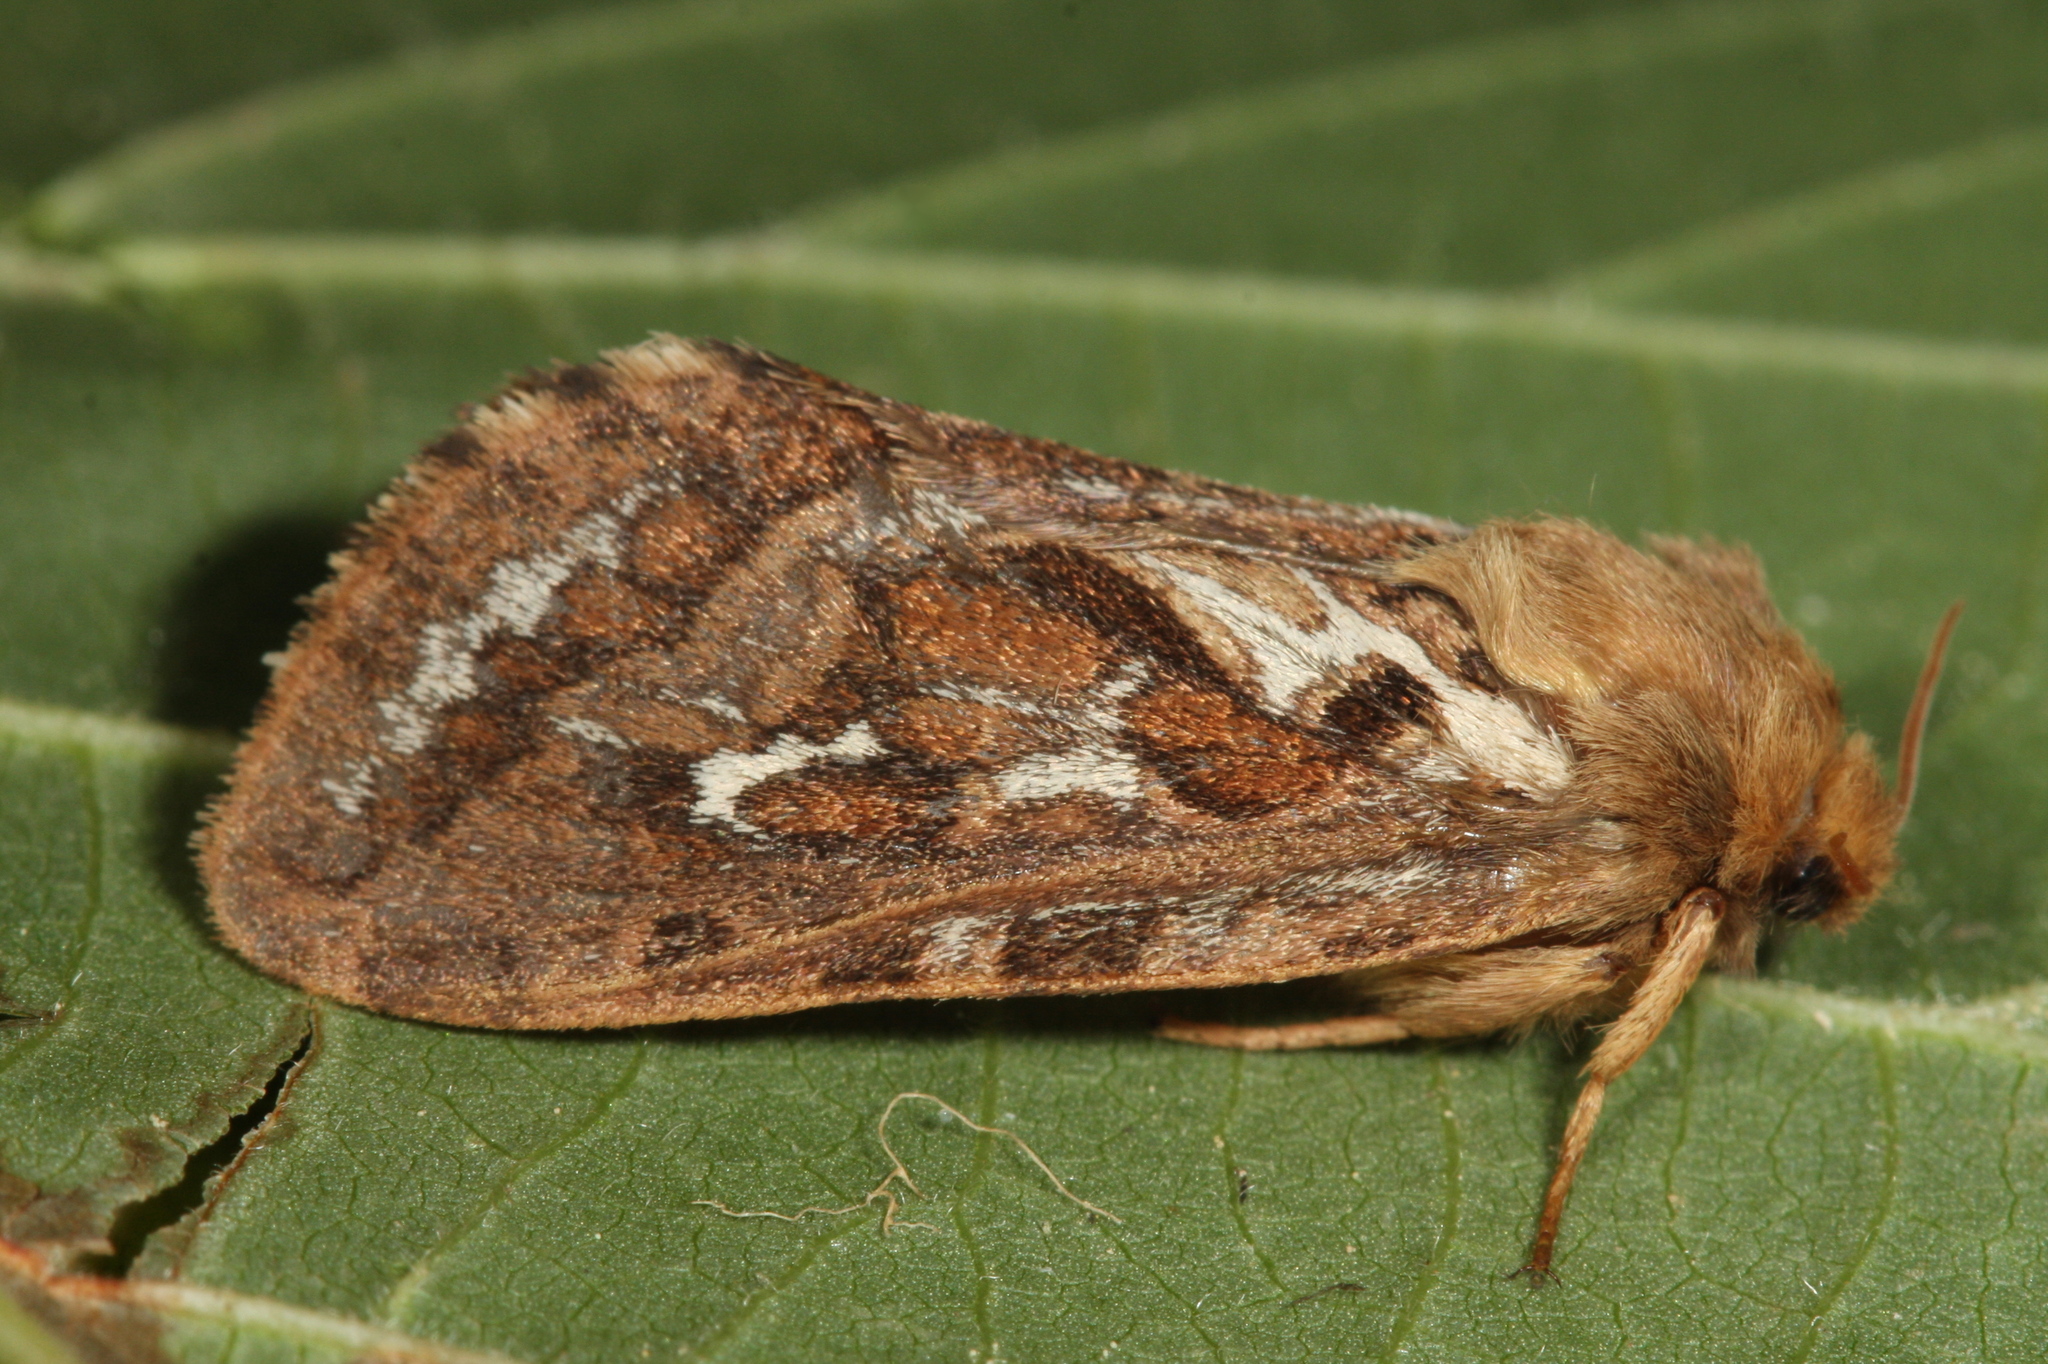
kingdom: Animalia
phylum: Arthropoda
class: Insecta
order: Lepidoptera
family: Hepialidae
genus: Korscheltellus
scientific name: Korscheltellus fusconebulosus
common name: Map-winged swift
